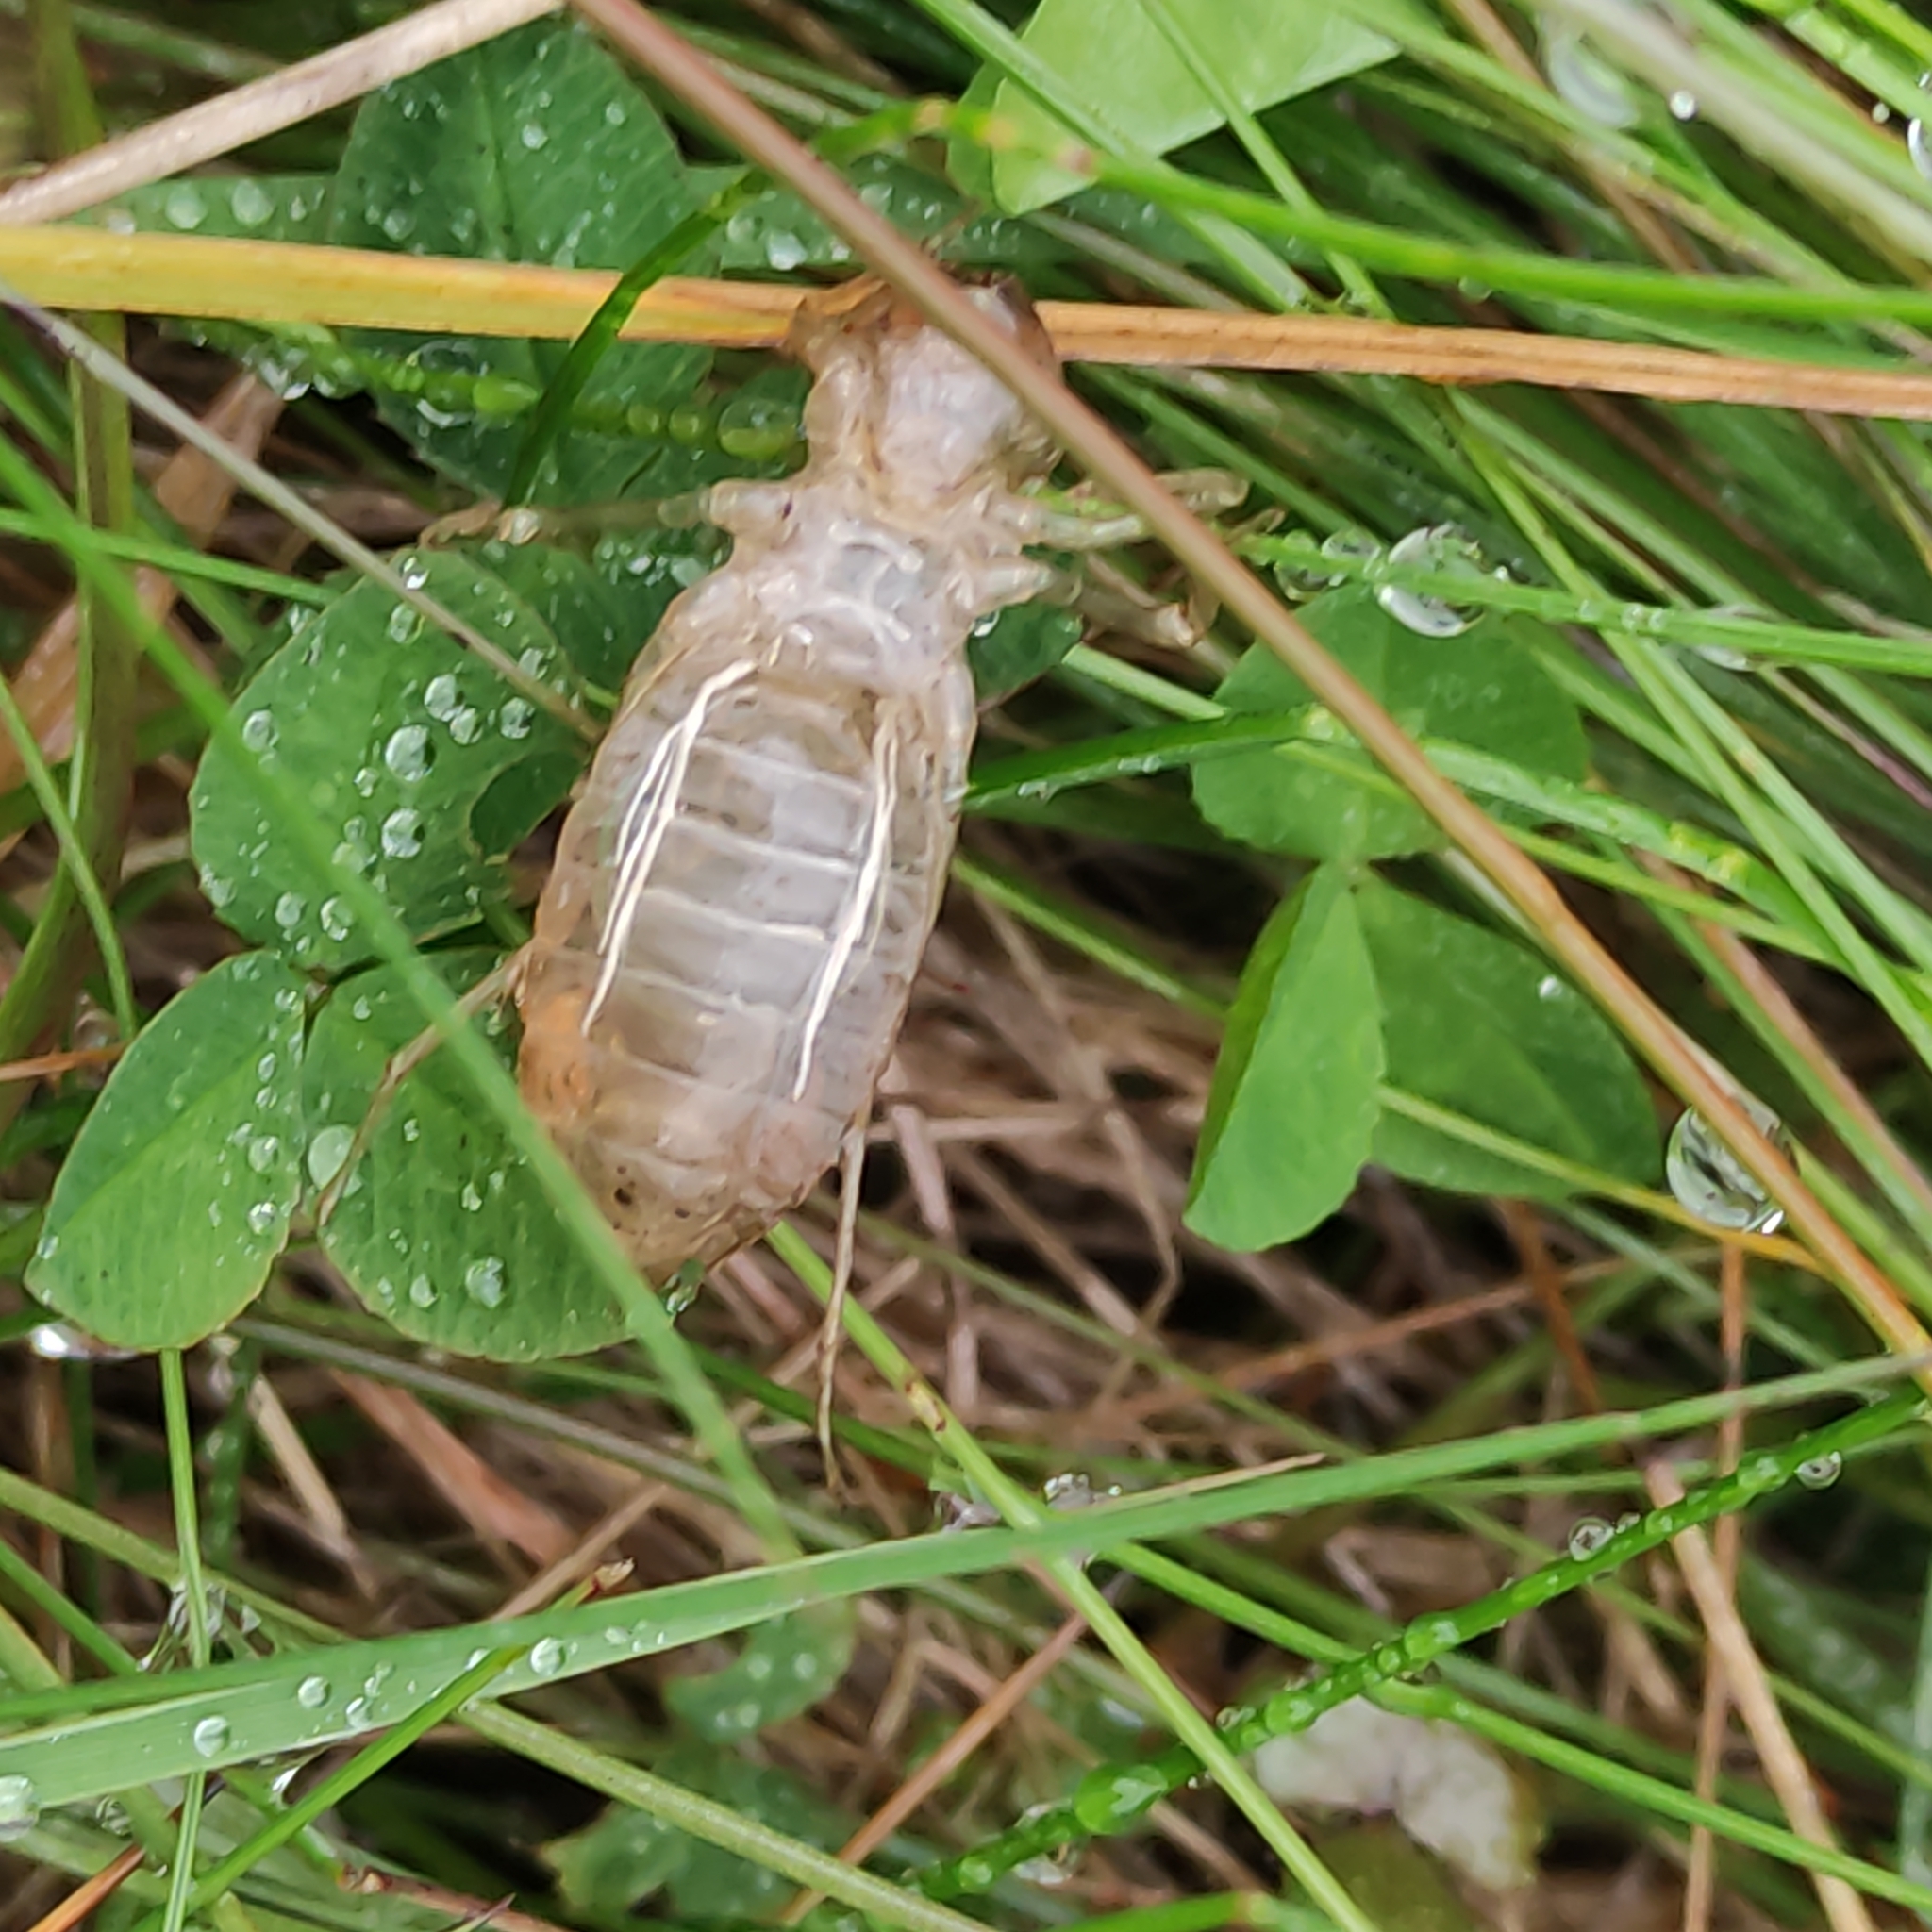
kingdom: Animalia
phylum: Arthropoda
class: Insecta
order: Odonata
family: Corduliidae
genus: Procordulia
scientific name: Procordulia grayi
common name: Yellow spotted dragonfly
